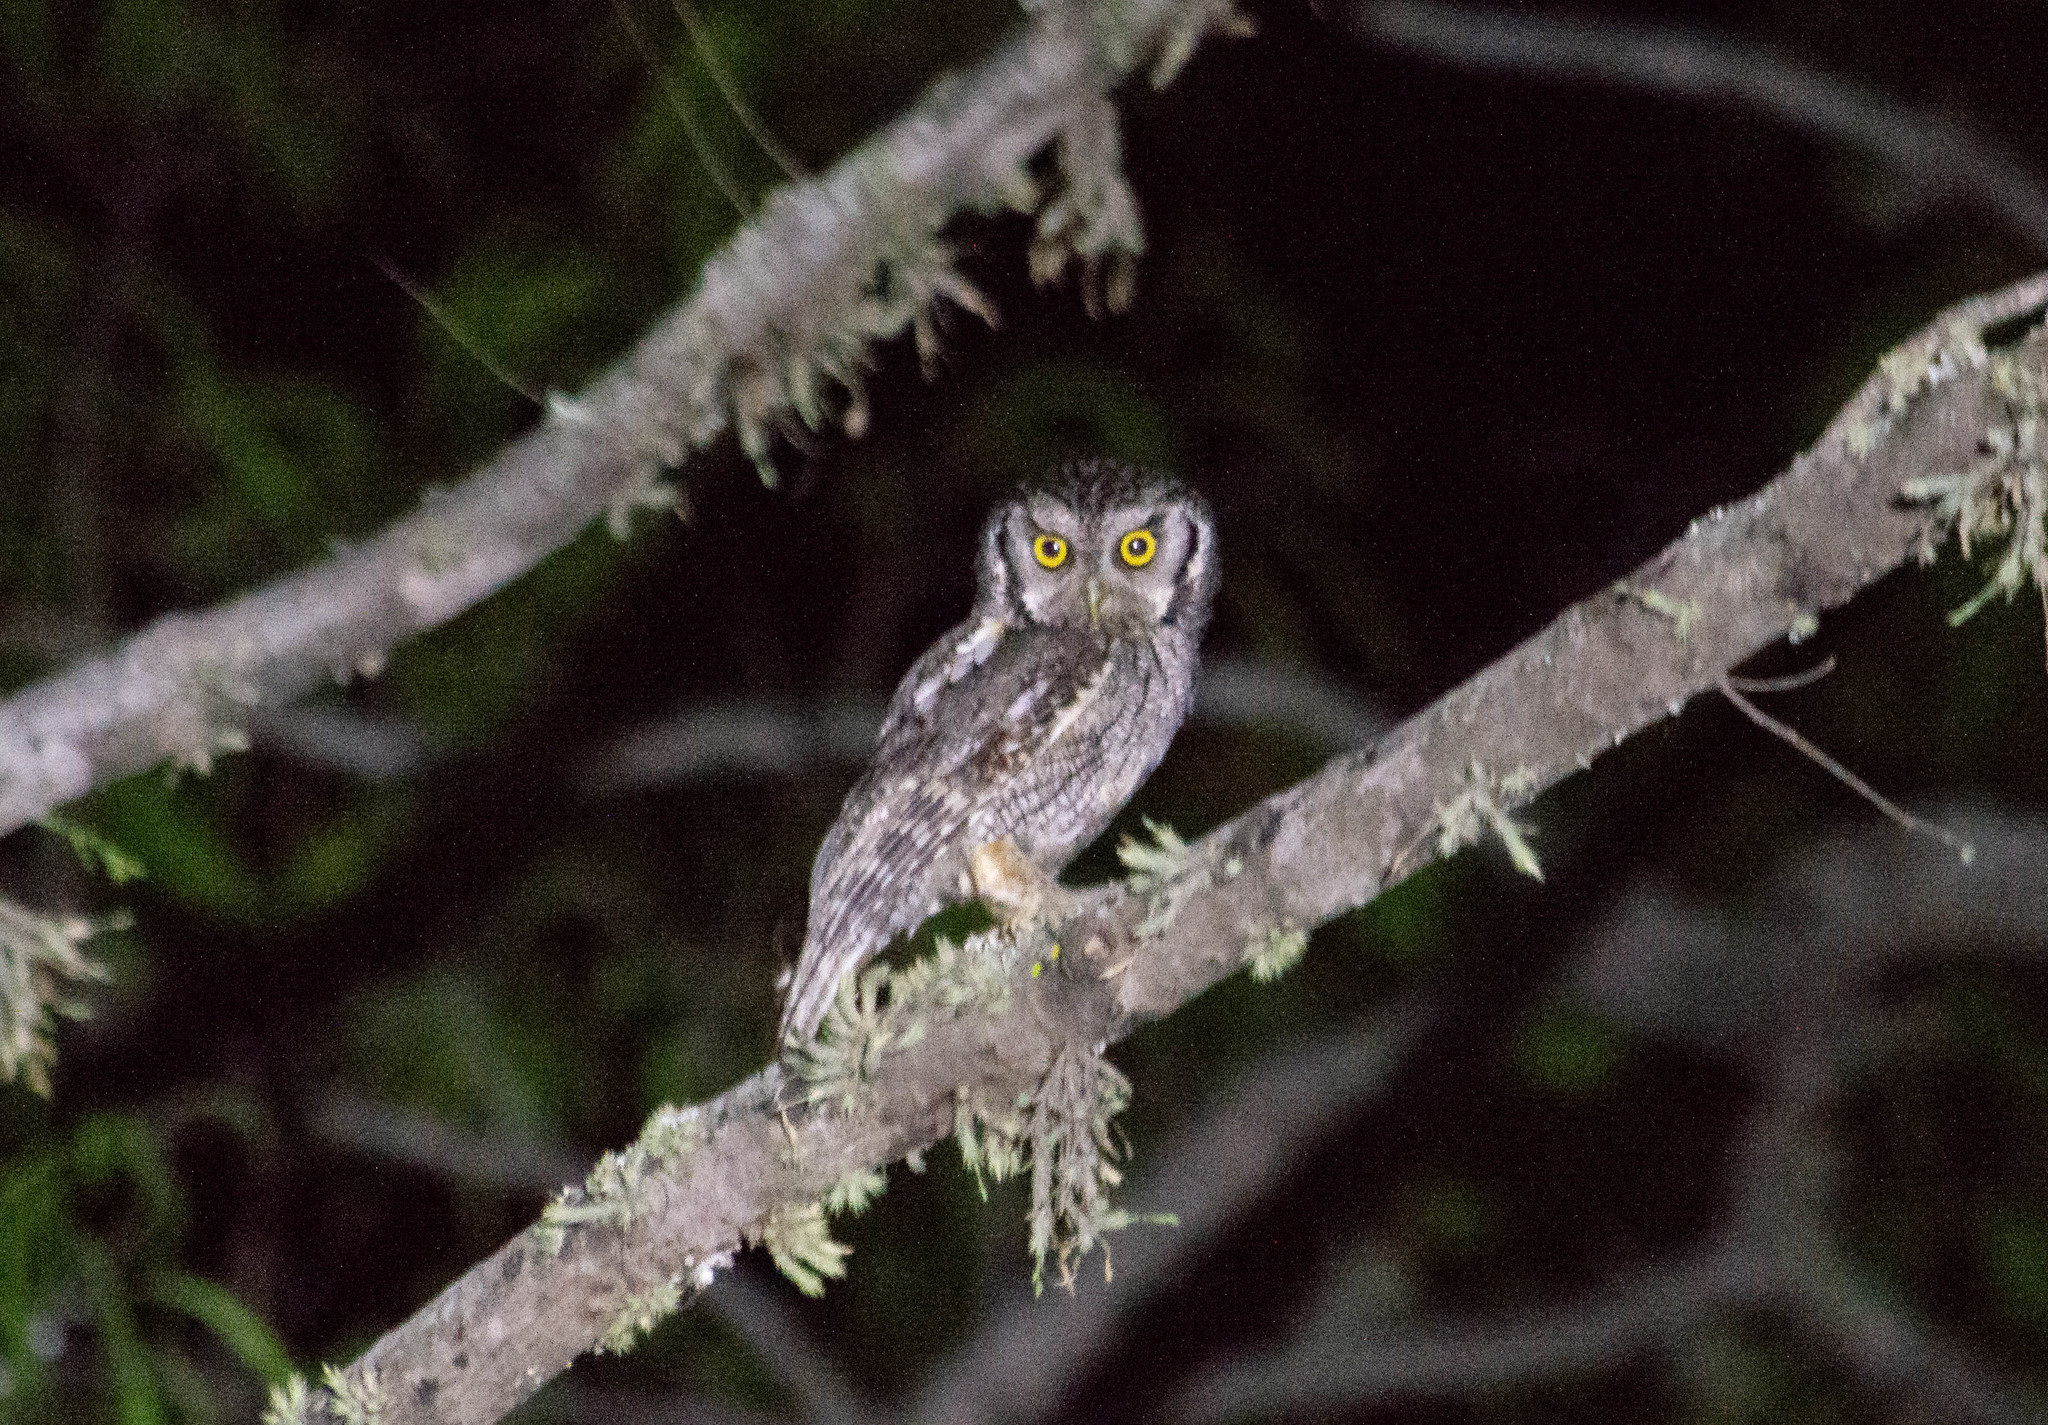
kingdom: Animalia
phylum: Chordata
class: Aves
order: Strigiformes
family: Strigidae
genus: Megascops
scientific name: Megascops choliba
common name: Tropical screech-owl
